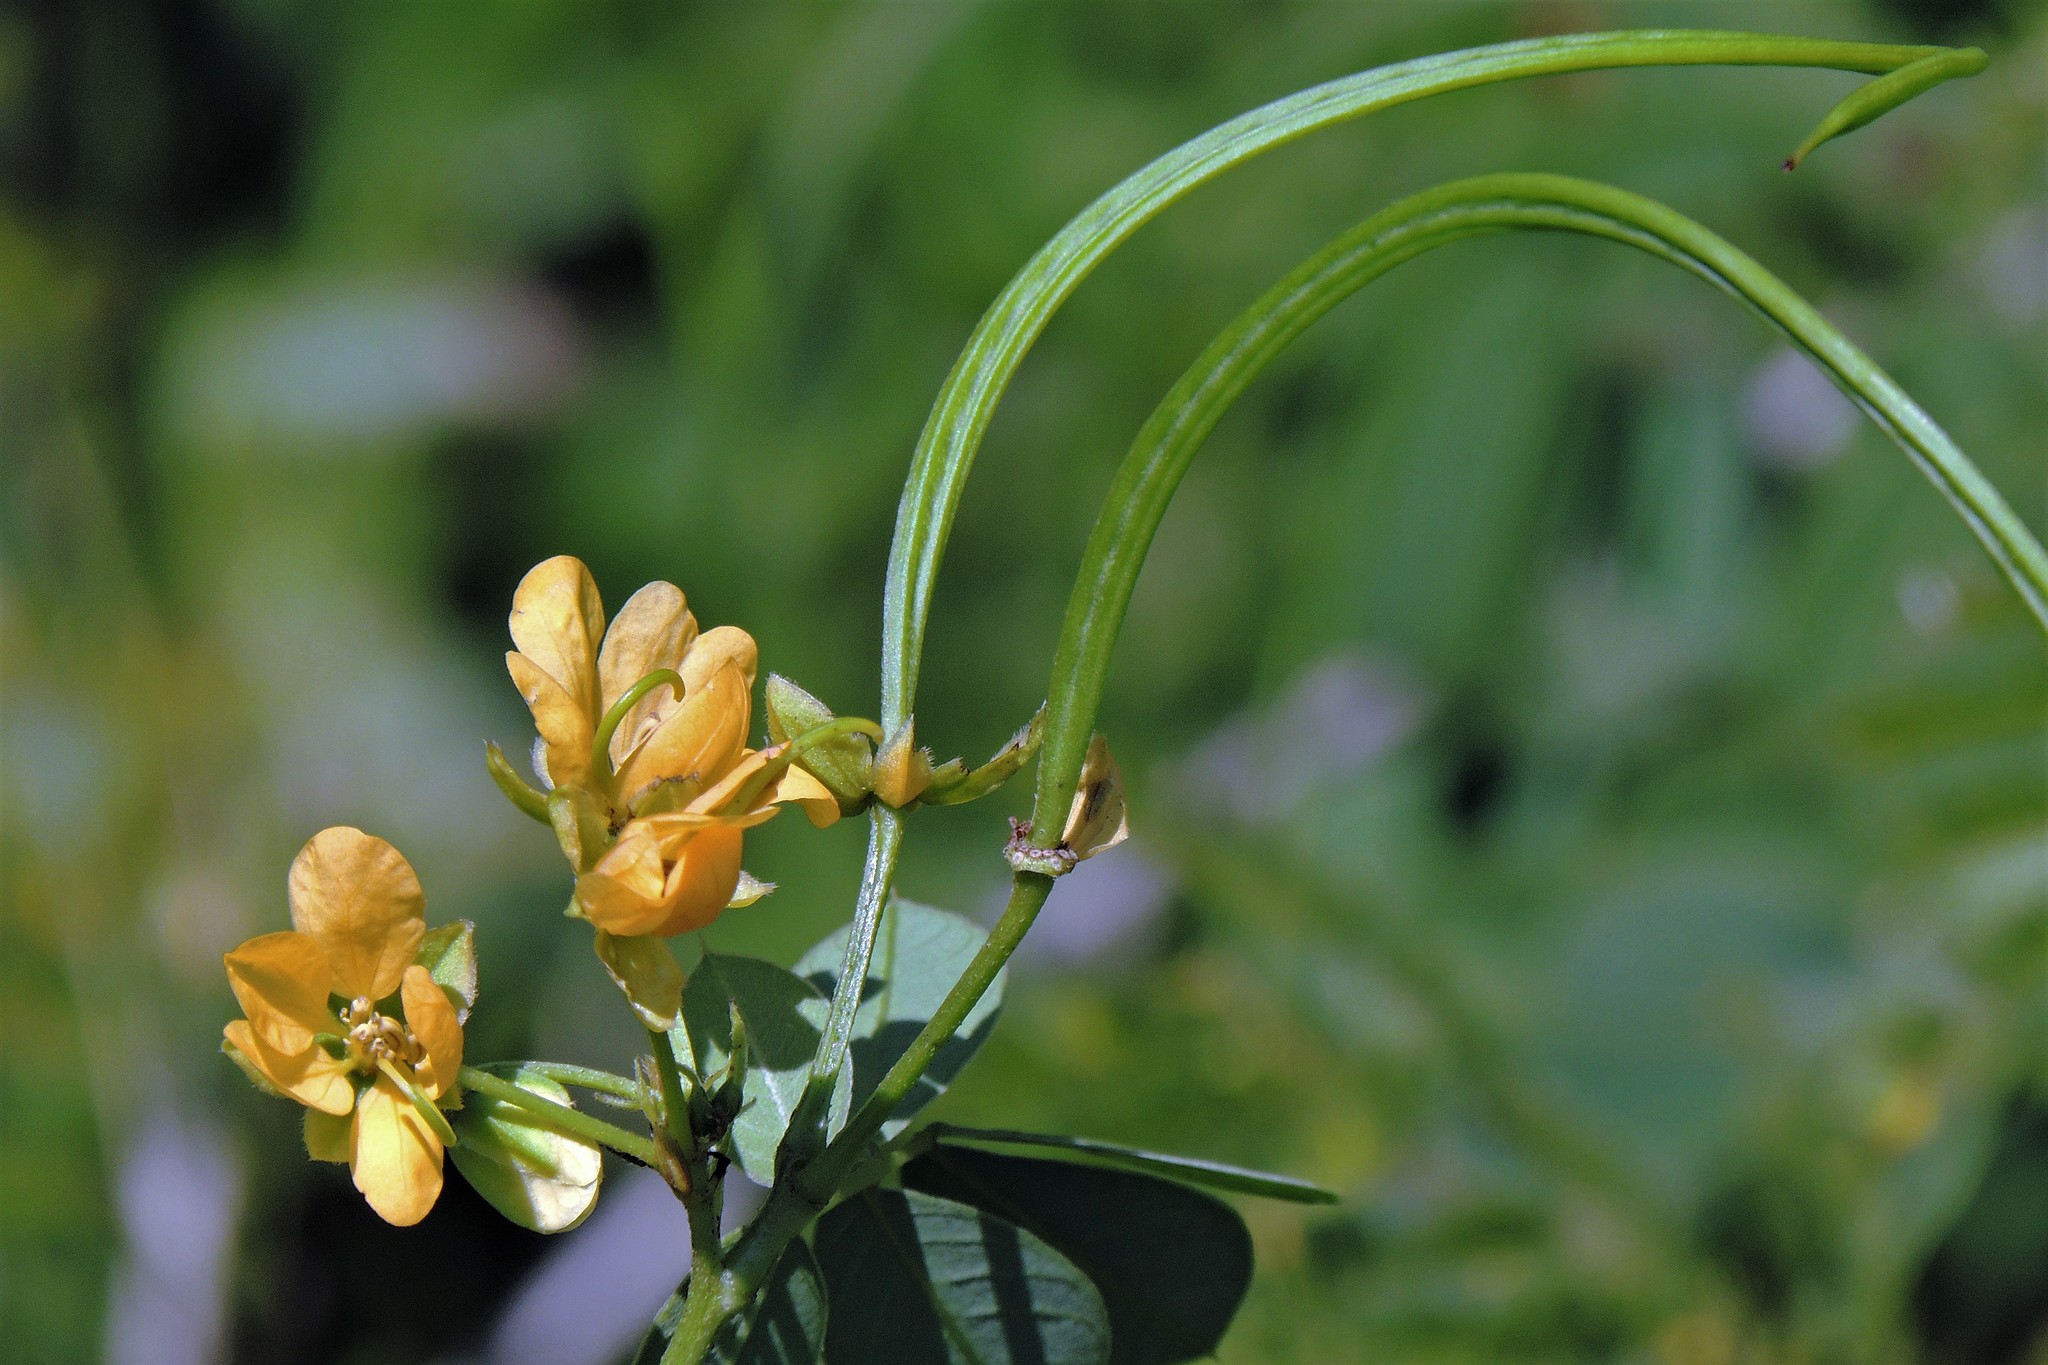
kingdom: Plantae
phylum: Tracheophyta
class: Magnoliopsida
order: Fabales
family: Fabaceae
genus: Senna
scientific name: Senna obtusifolia
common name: Java-bean
